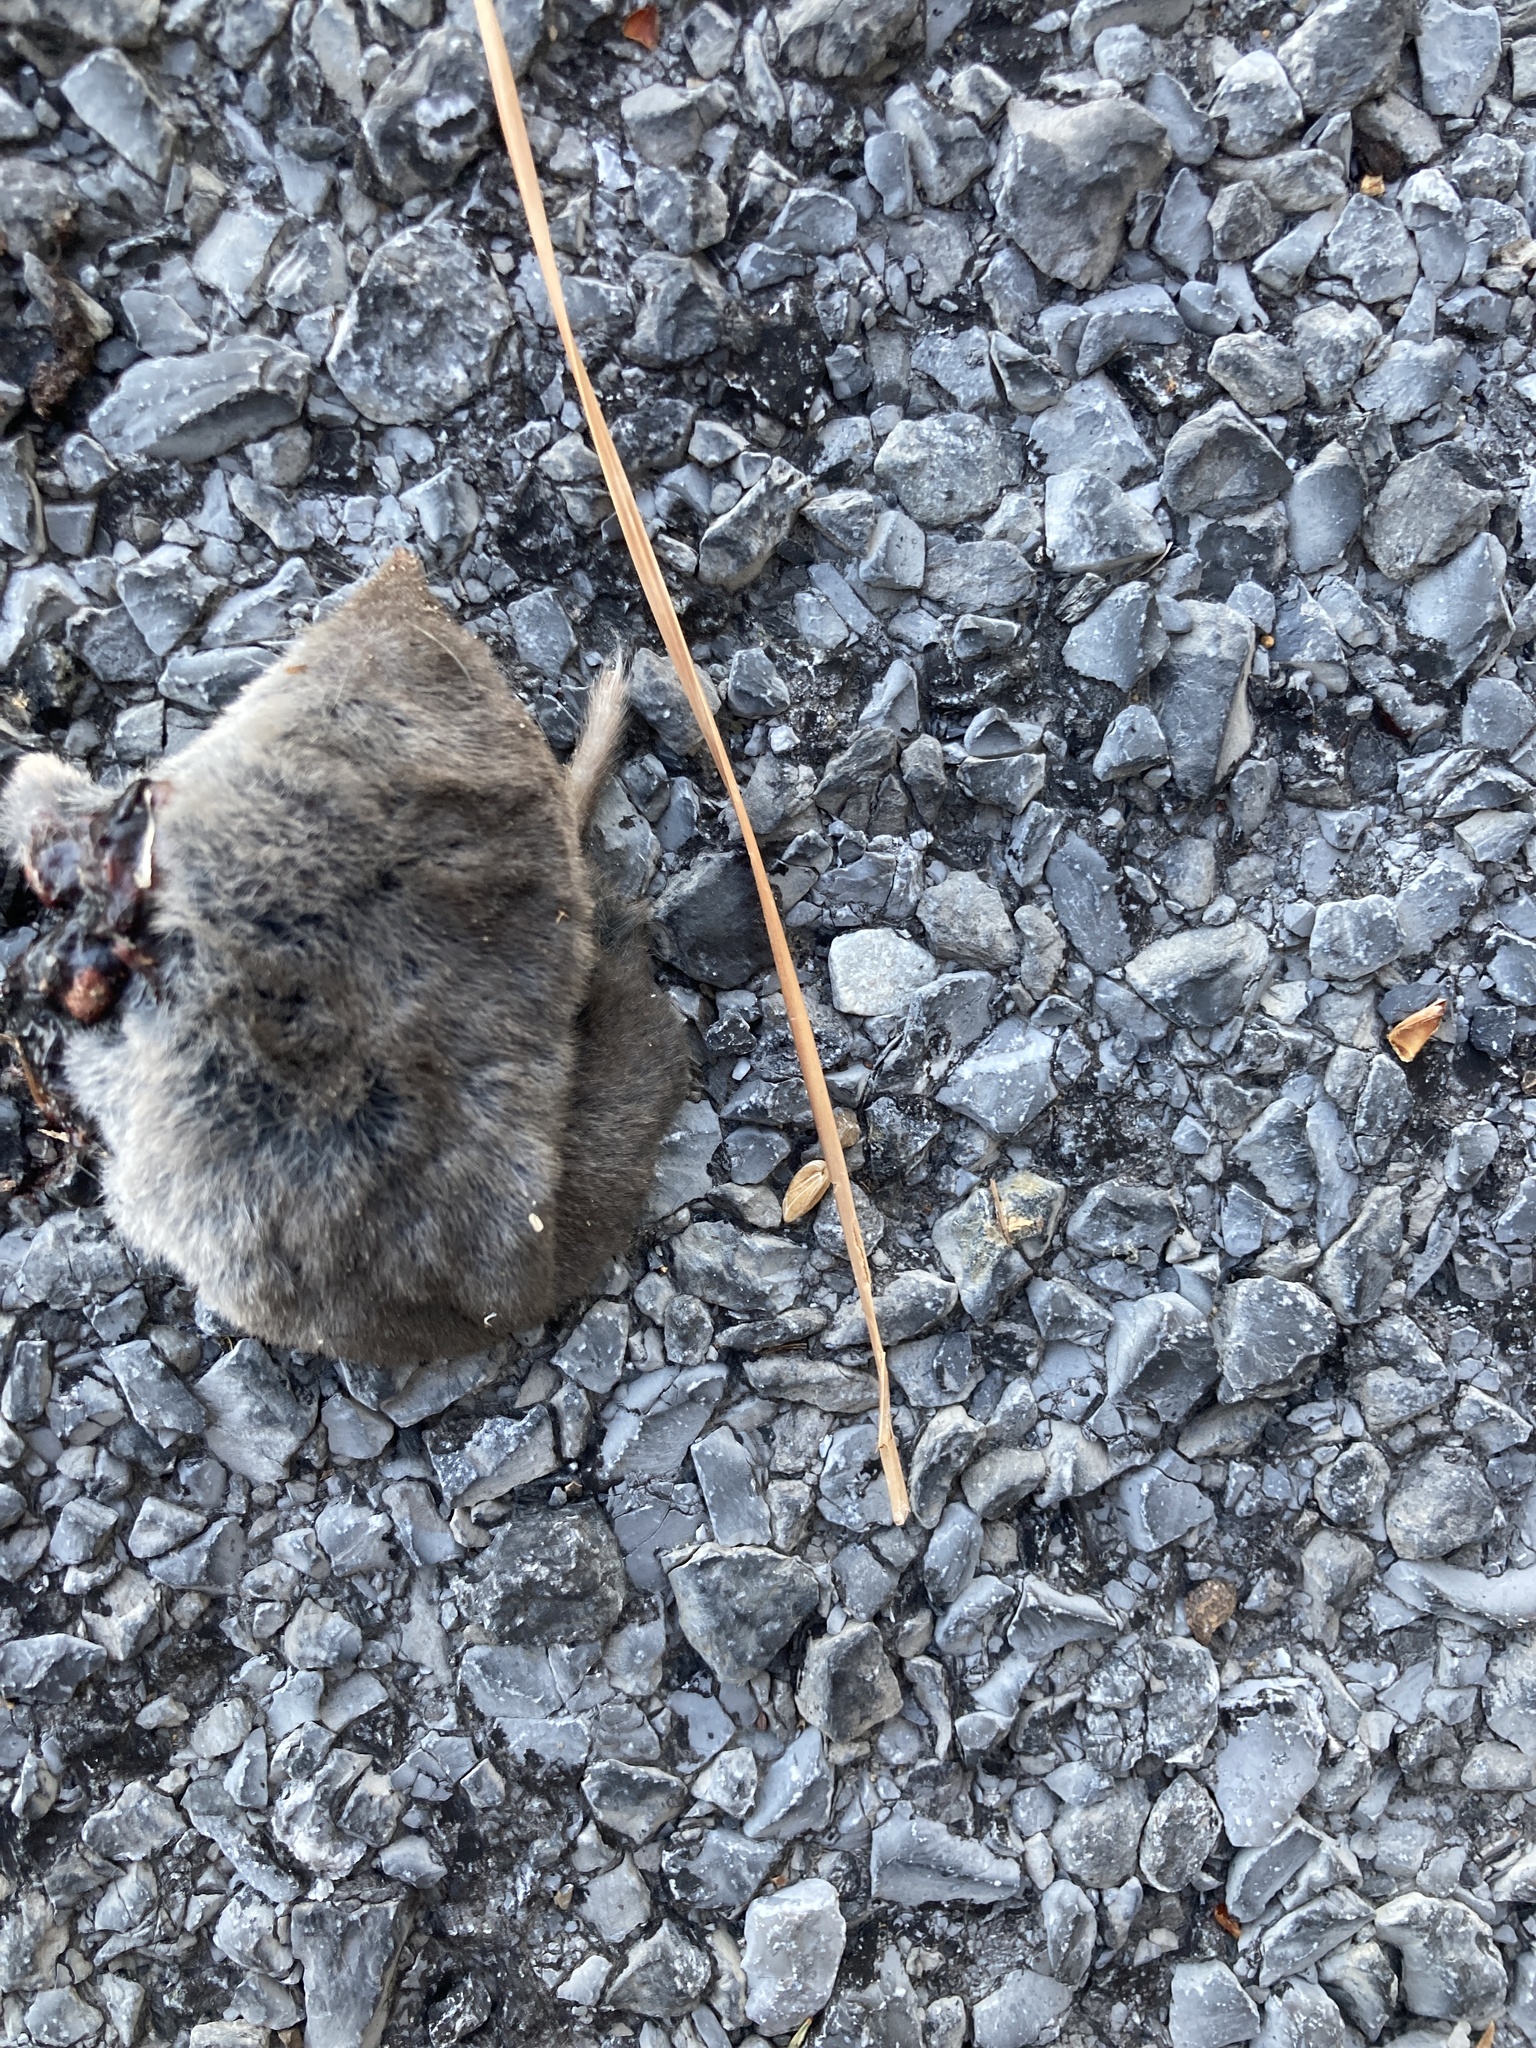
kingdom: Animalia
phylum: Chordata
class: Mammalia
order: Soricomorpha
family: Soricidae
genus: Blarina
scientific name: Blarina brevicauda
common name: Northern short-tailed shrew
